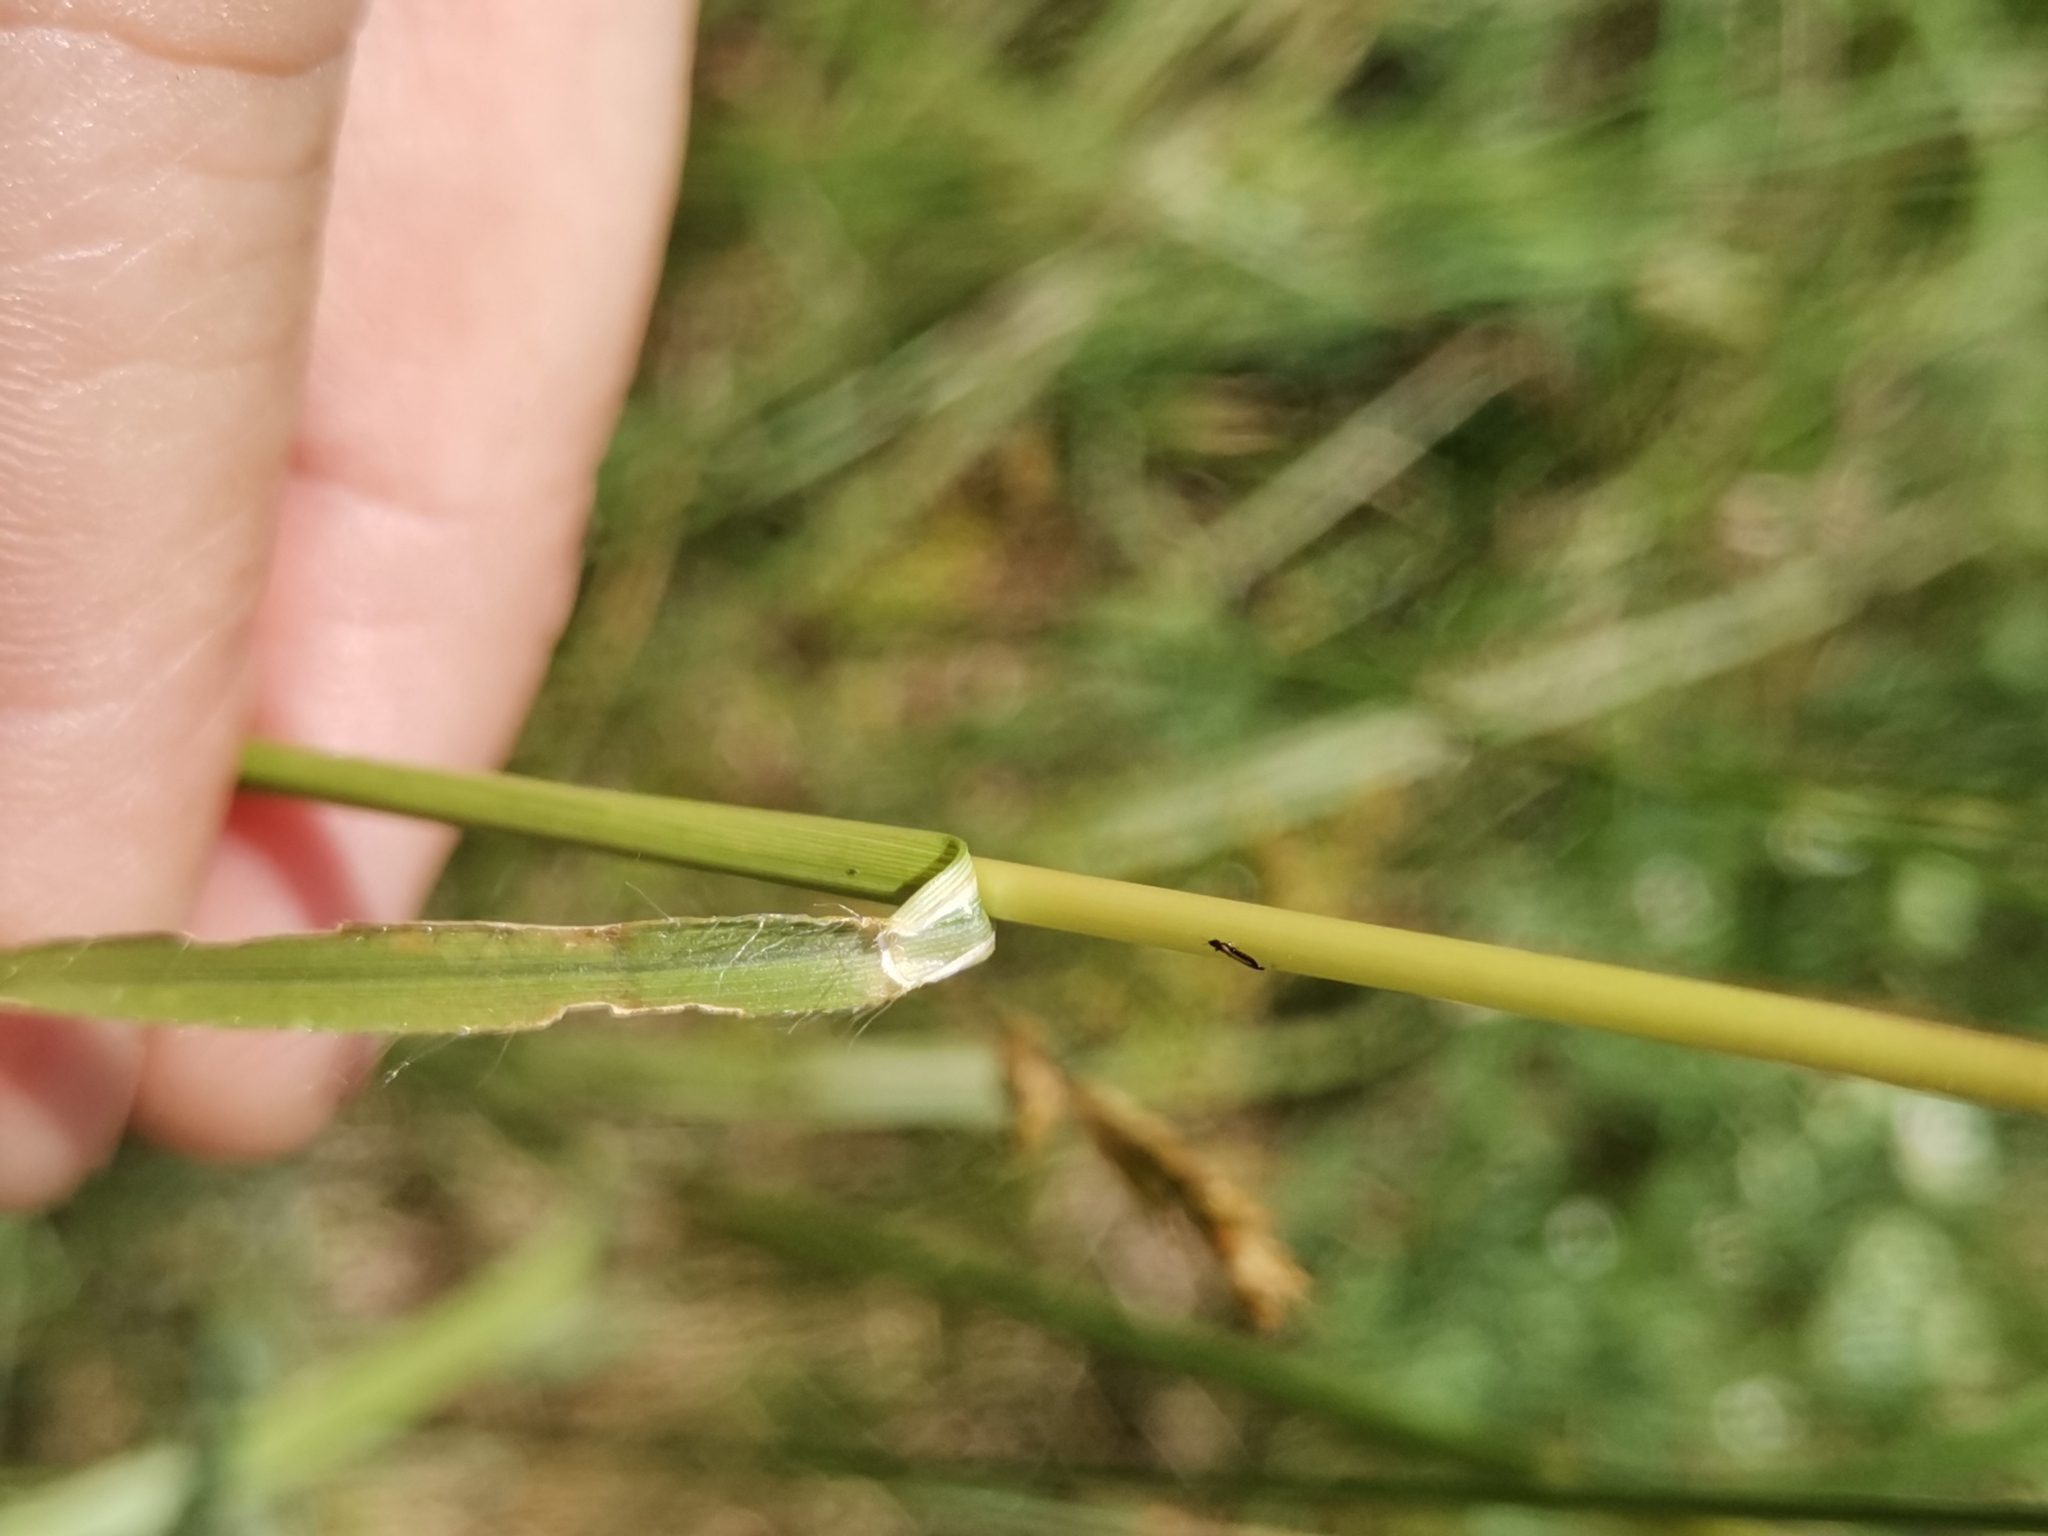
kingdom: Plantae
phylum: Tracheophyta
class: Liliopsida
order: Poales
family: Poaceae
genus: Chrysopogon
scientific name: Chrysopogon gryllus
